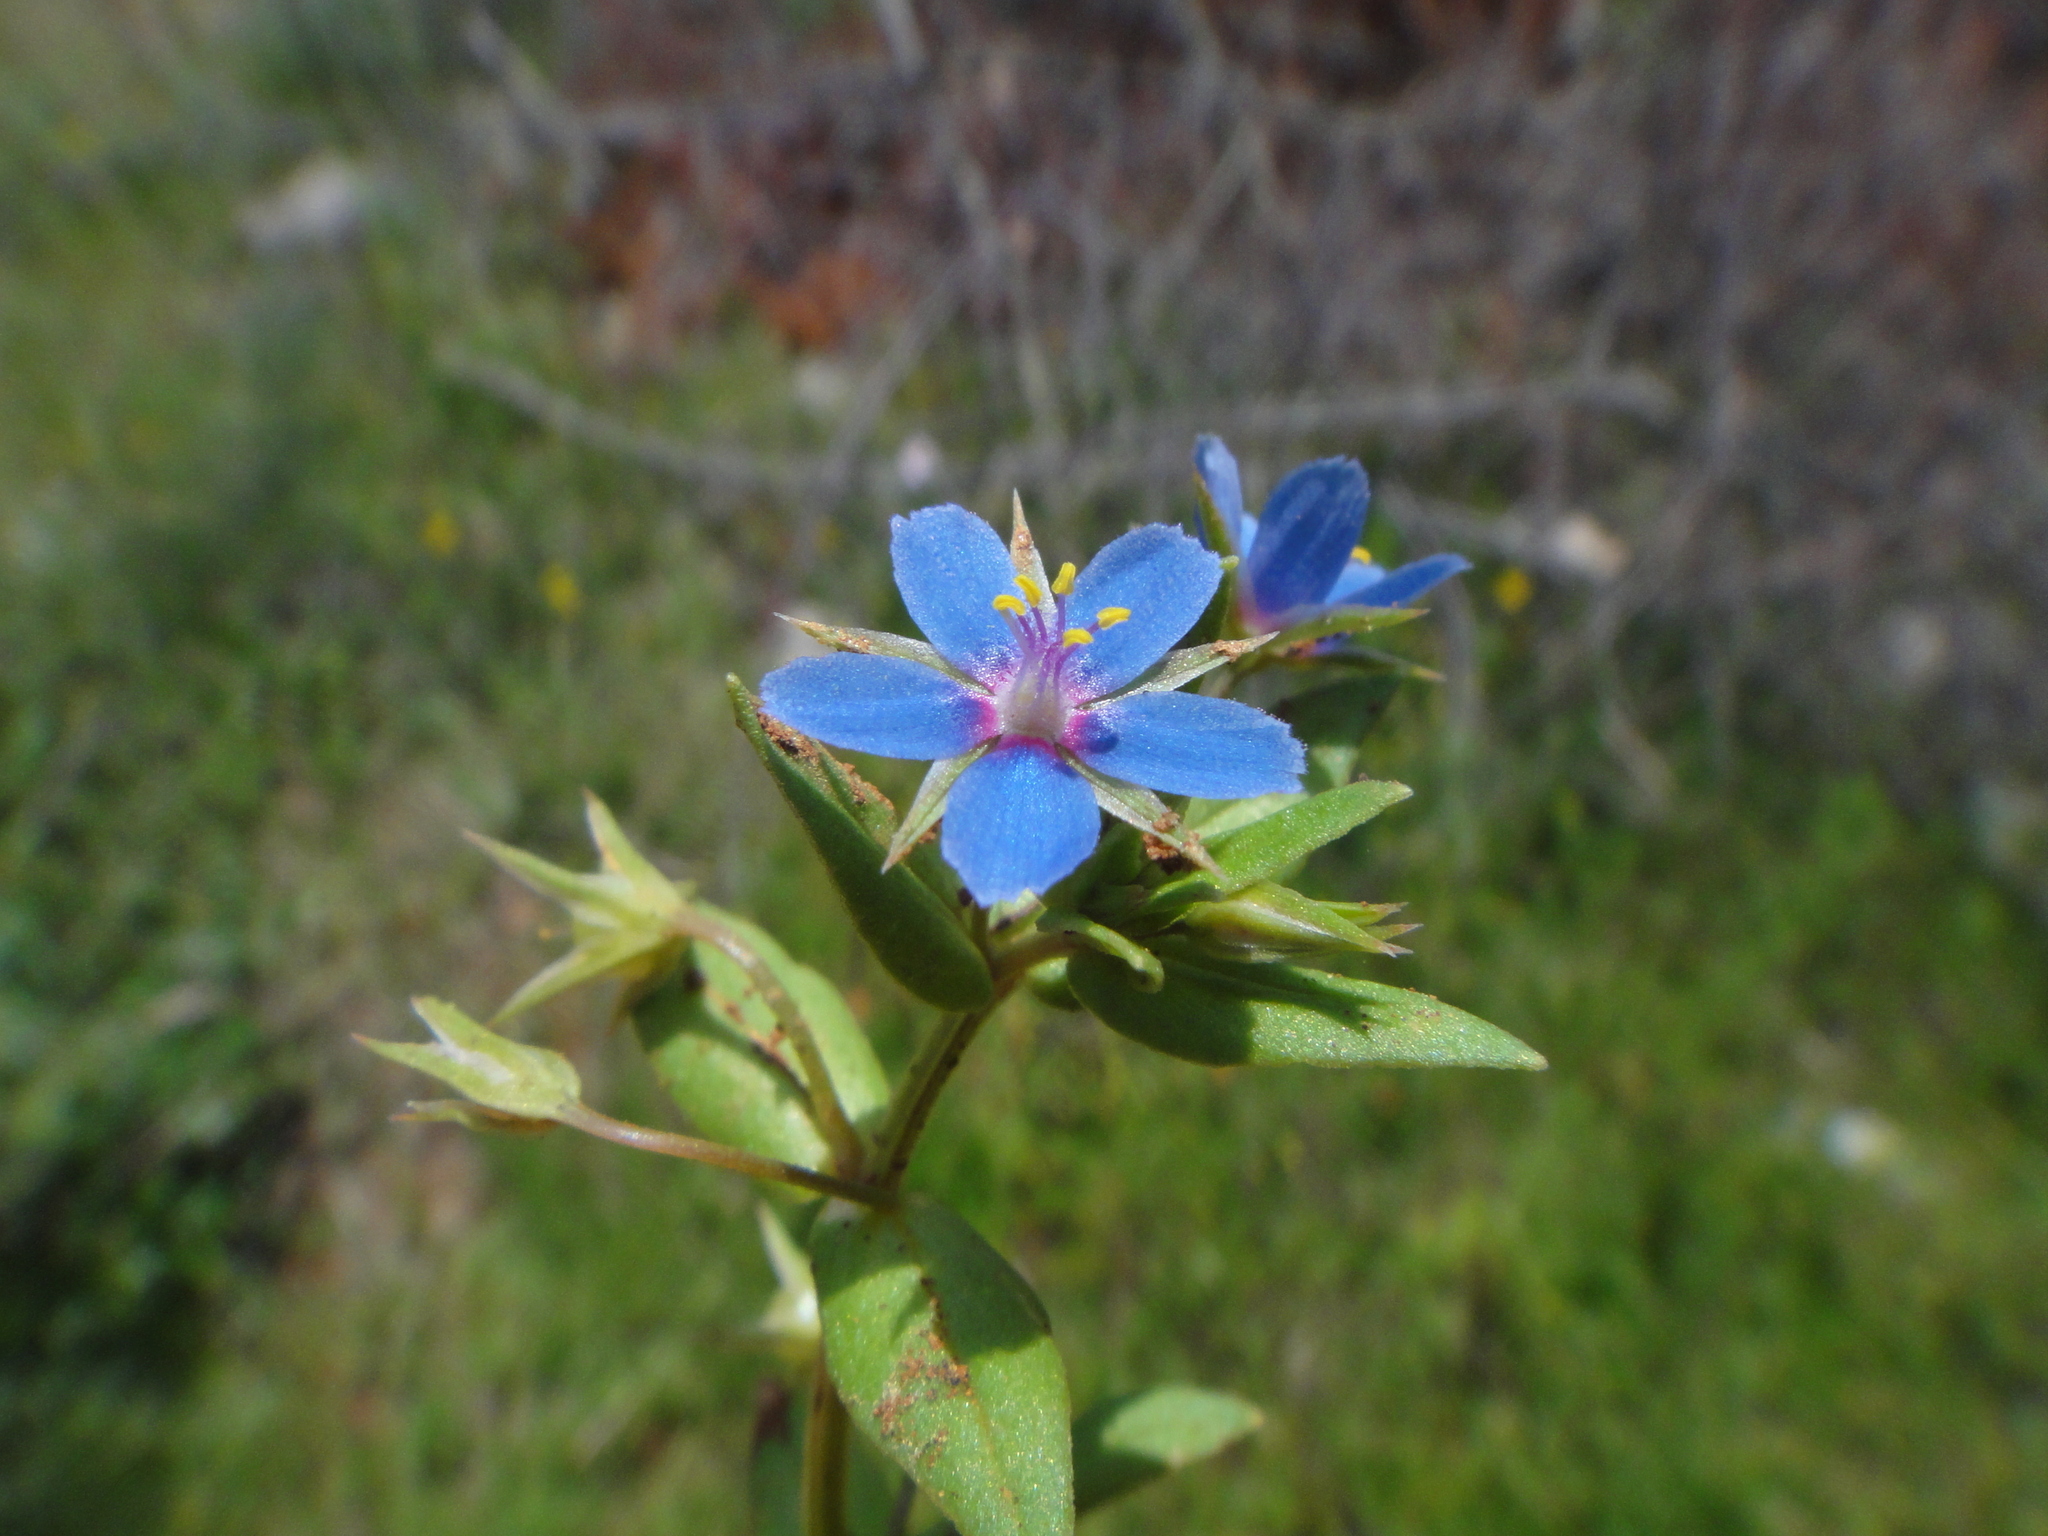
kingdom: Plantae
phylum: Tracheophyta
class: Magnoliopsida
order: Ericales
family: Primulaceae
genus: Lysimachia
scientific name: Lysimachia foemina
